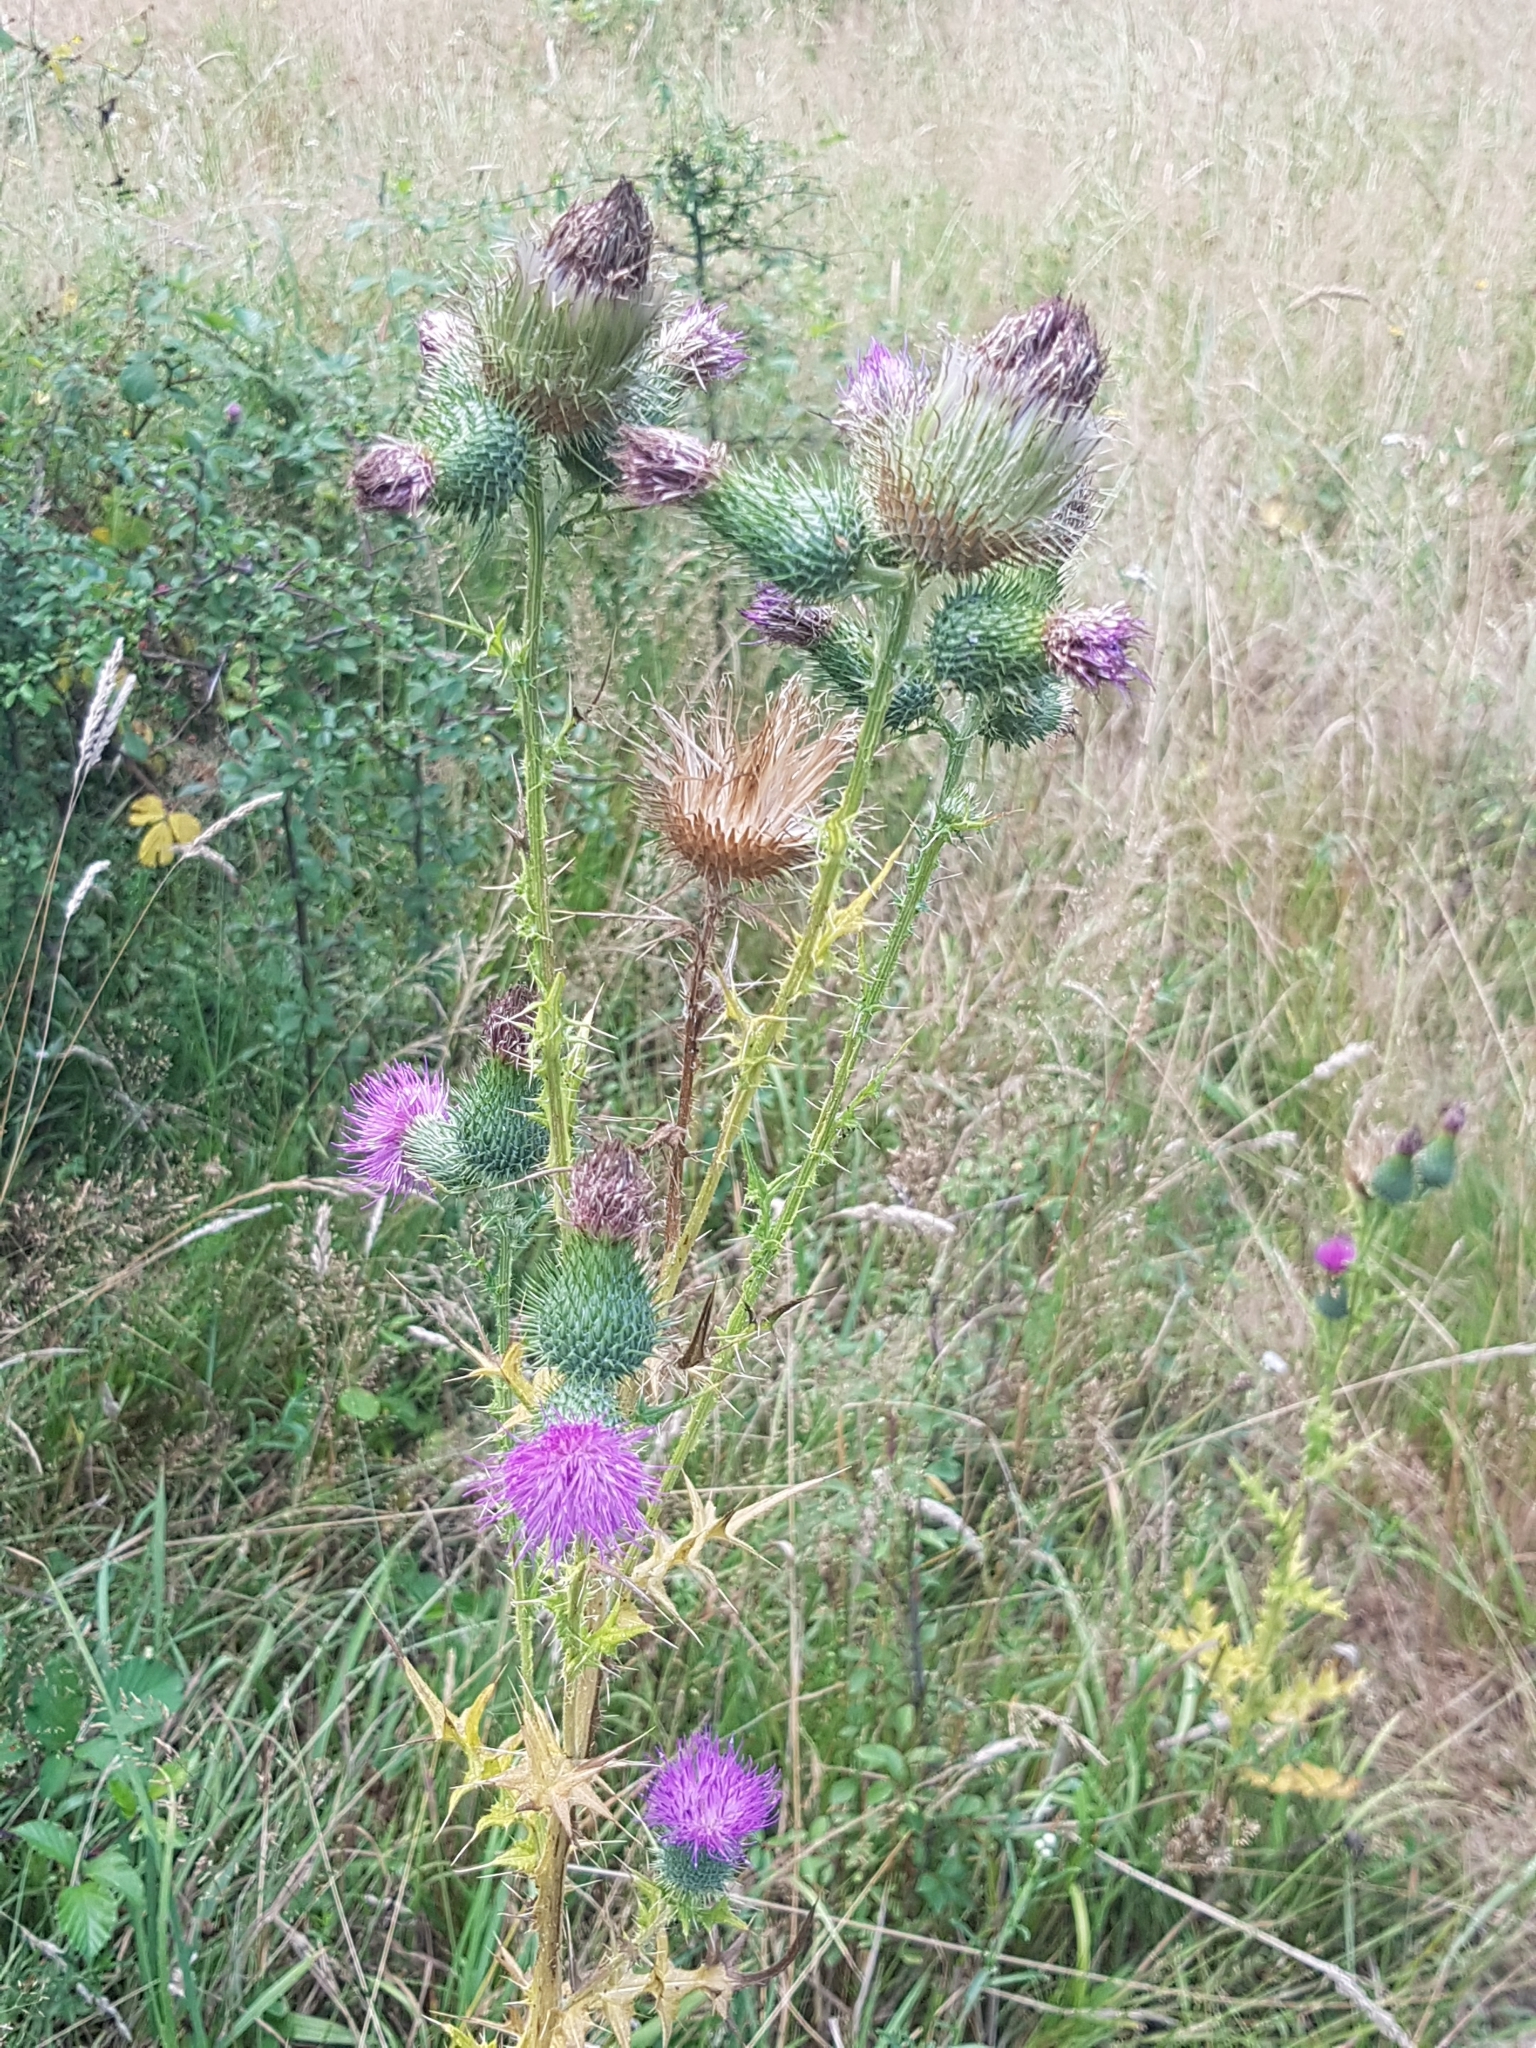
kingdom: Plantae
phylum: Tracheophyta
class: Magnoliopsida
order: Asterales
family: Asteraceae
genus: Cirsium
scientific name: Cirsium vulgare
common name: Bull thistle
